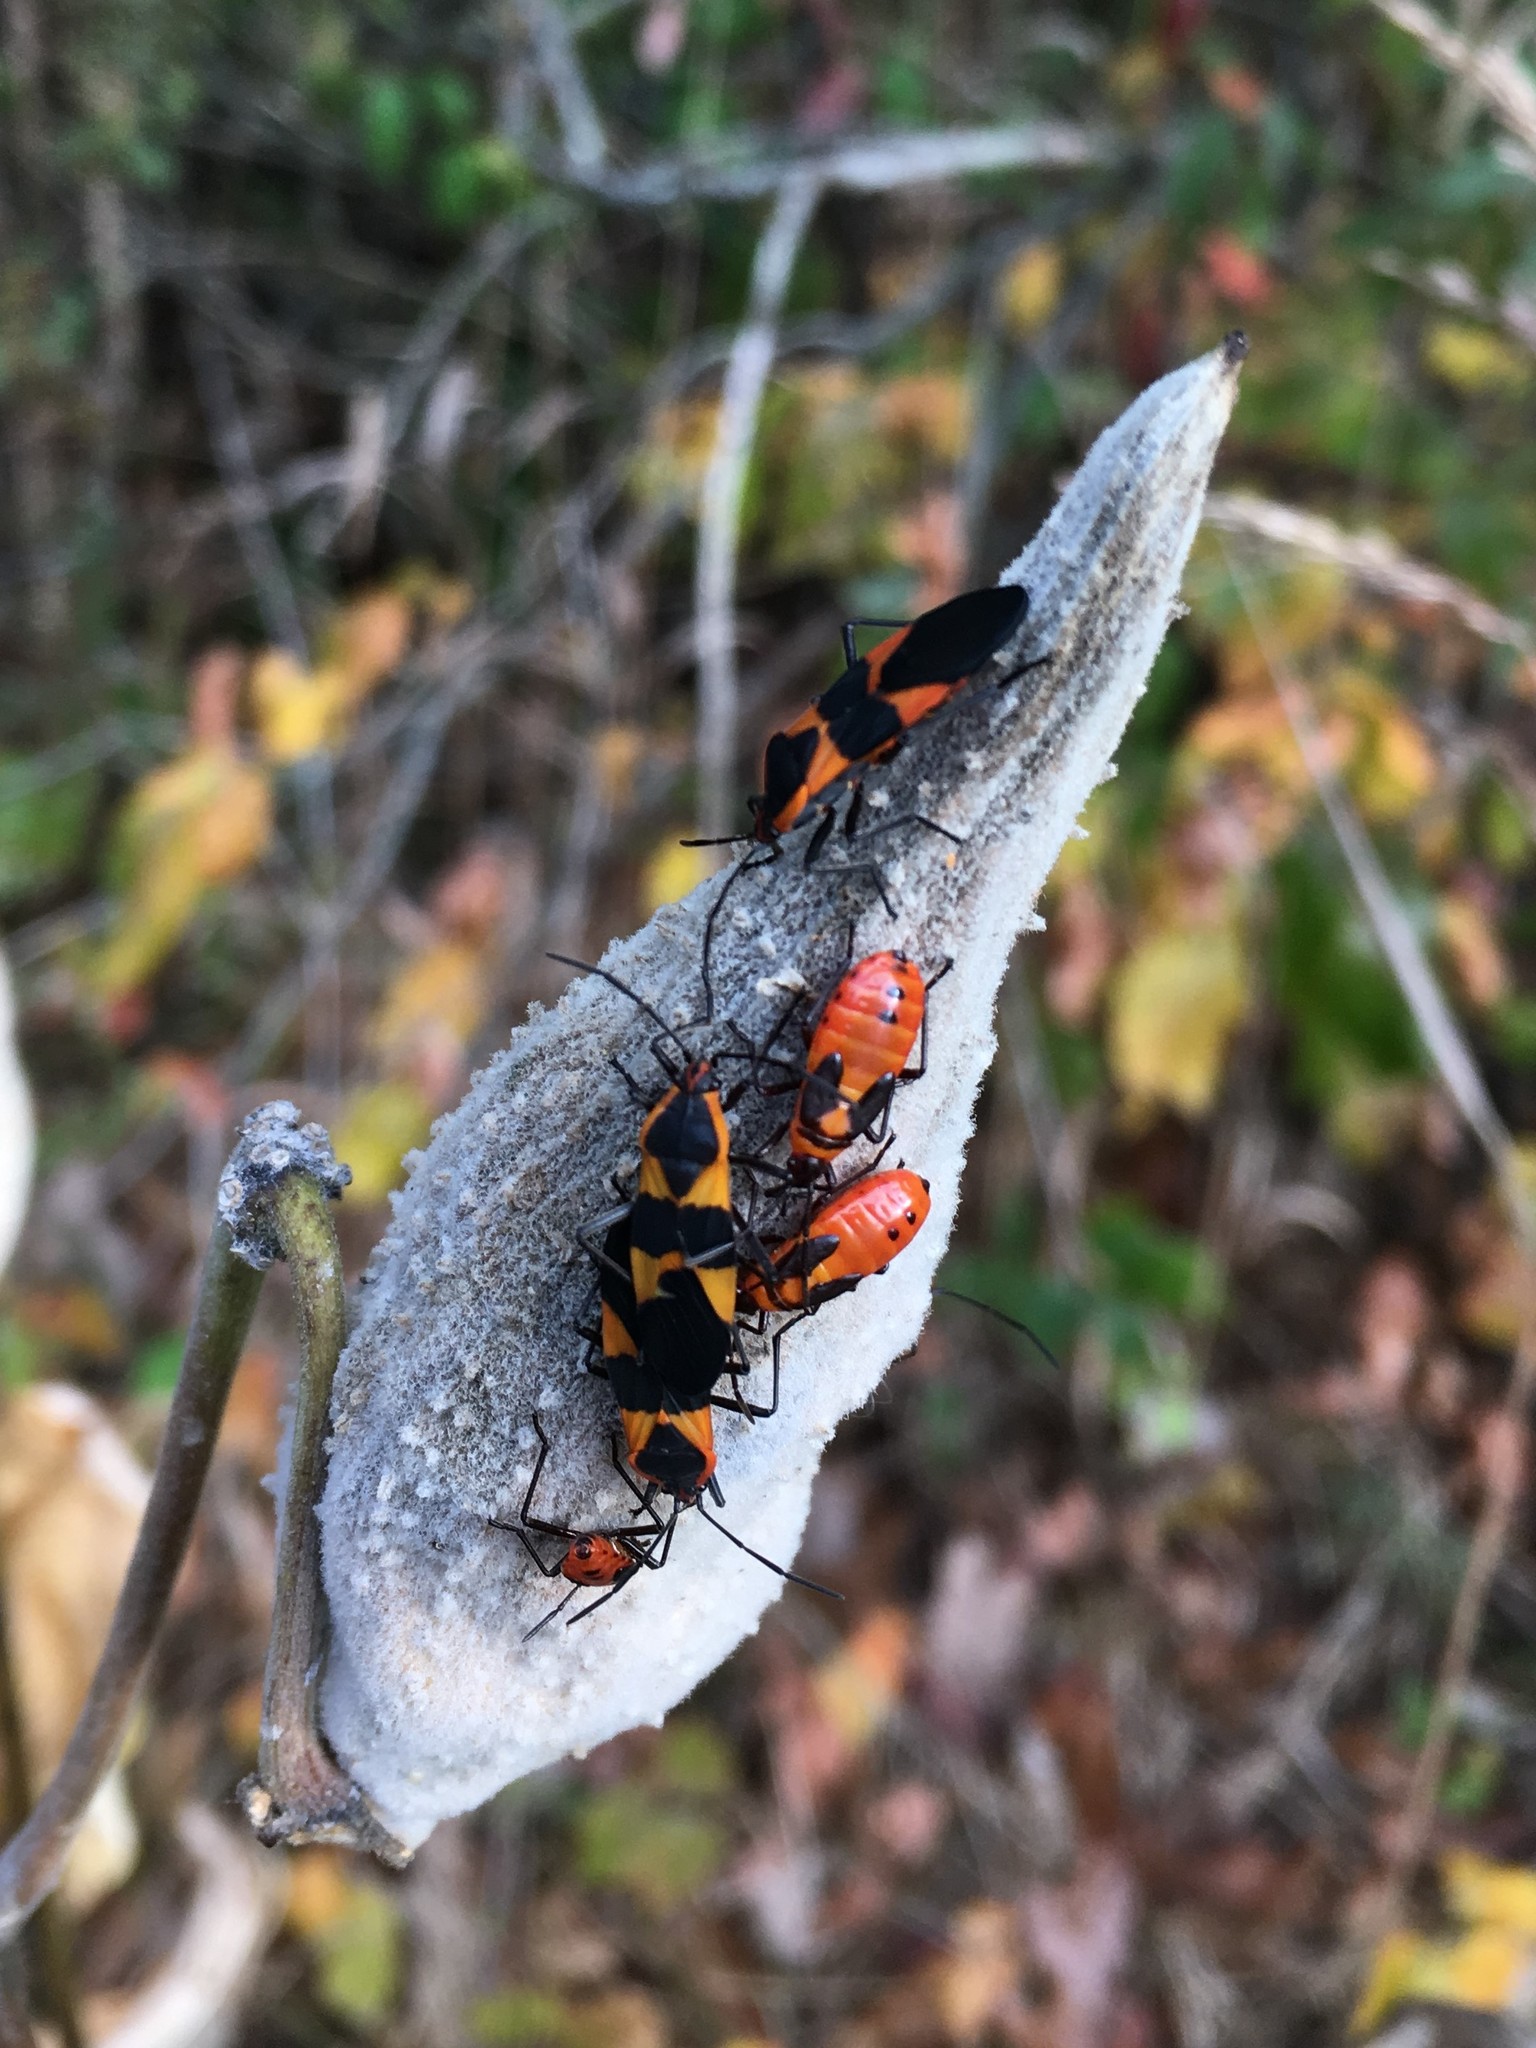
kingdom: Animalia
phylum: Arthropoda
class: Insecta
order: Hemiptera
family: Lygaeidae
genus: Oncopeltus
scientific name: Oncopeltus fasciatus
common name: Large milkweed bug
